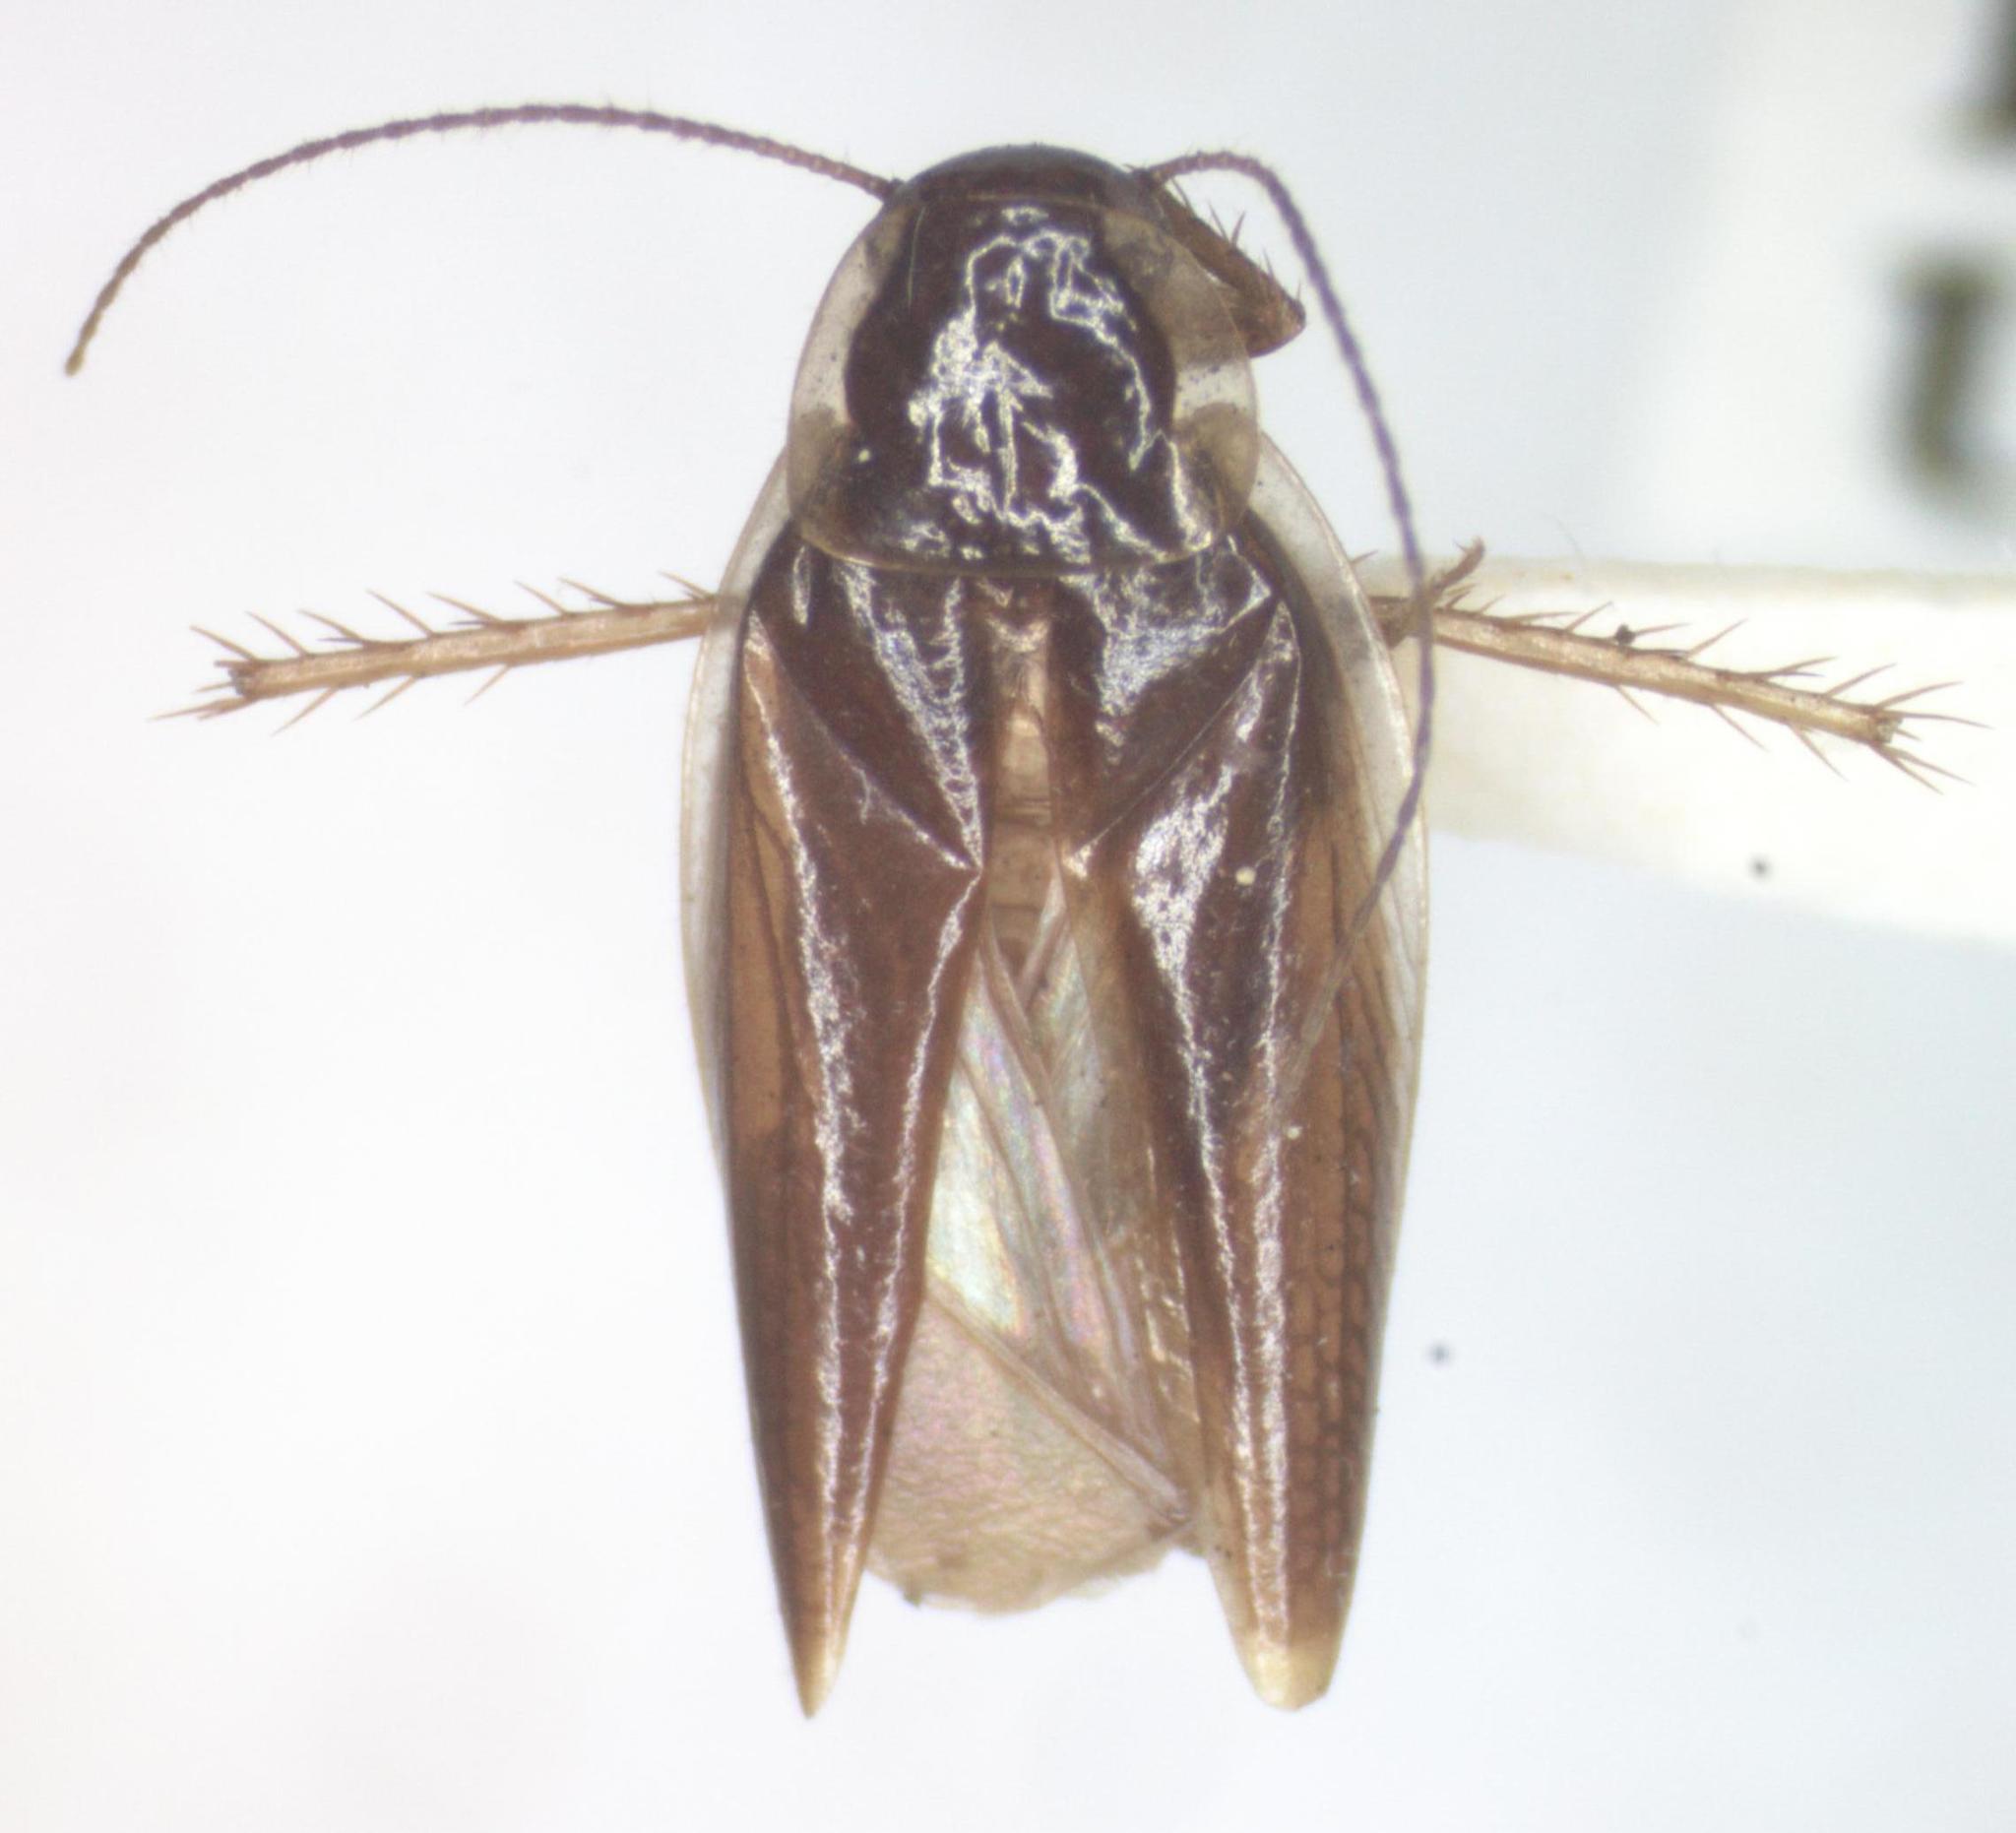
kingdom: Animalia
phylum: Arthropoda
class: Insecta
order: Blattodea
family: Anaplectidae
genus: Anaplecta
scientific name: Anaplecta fallax
